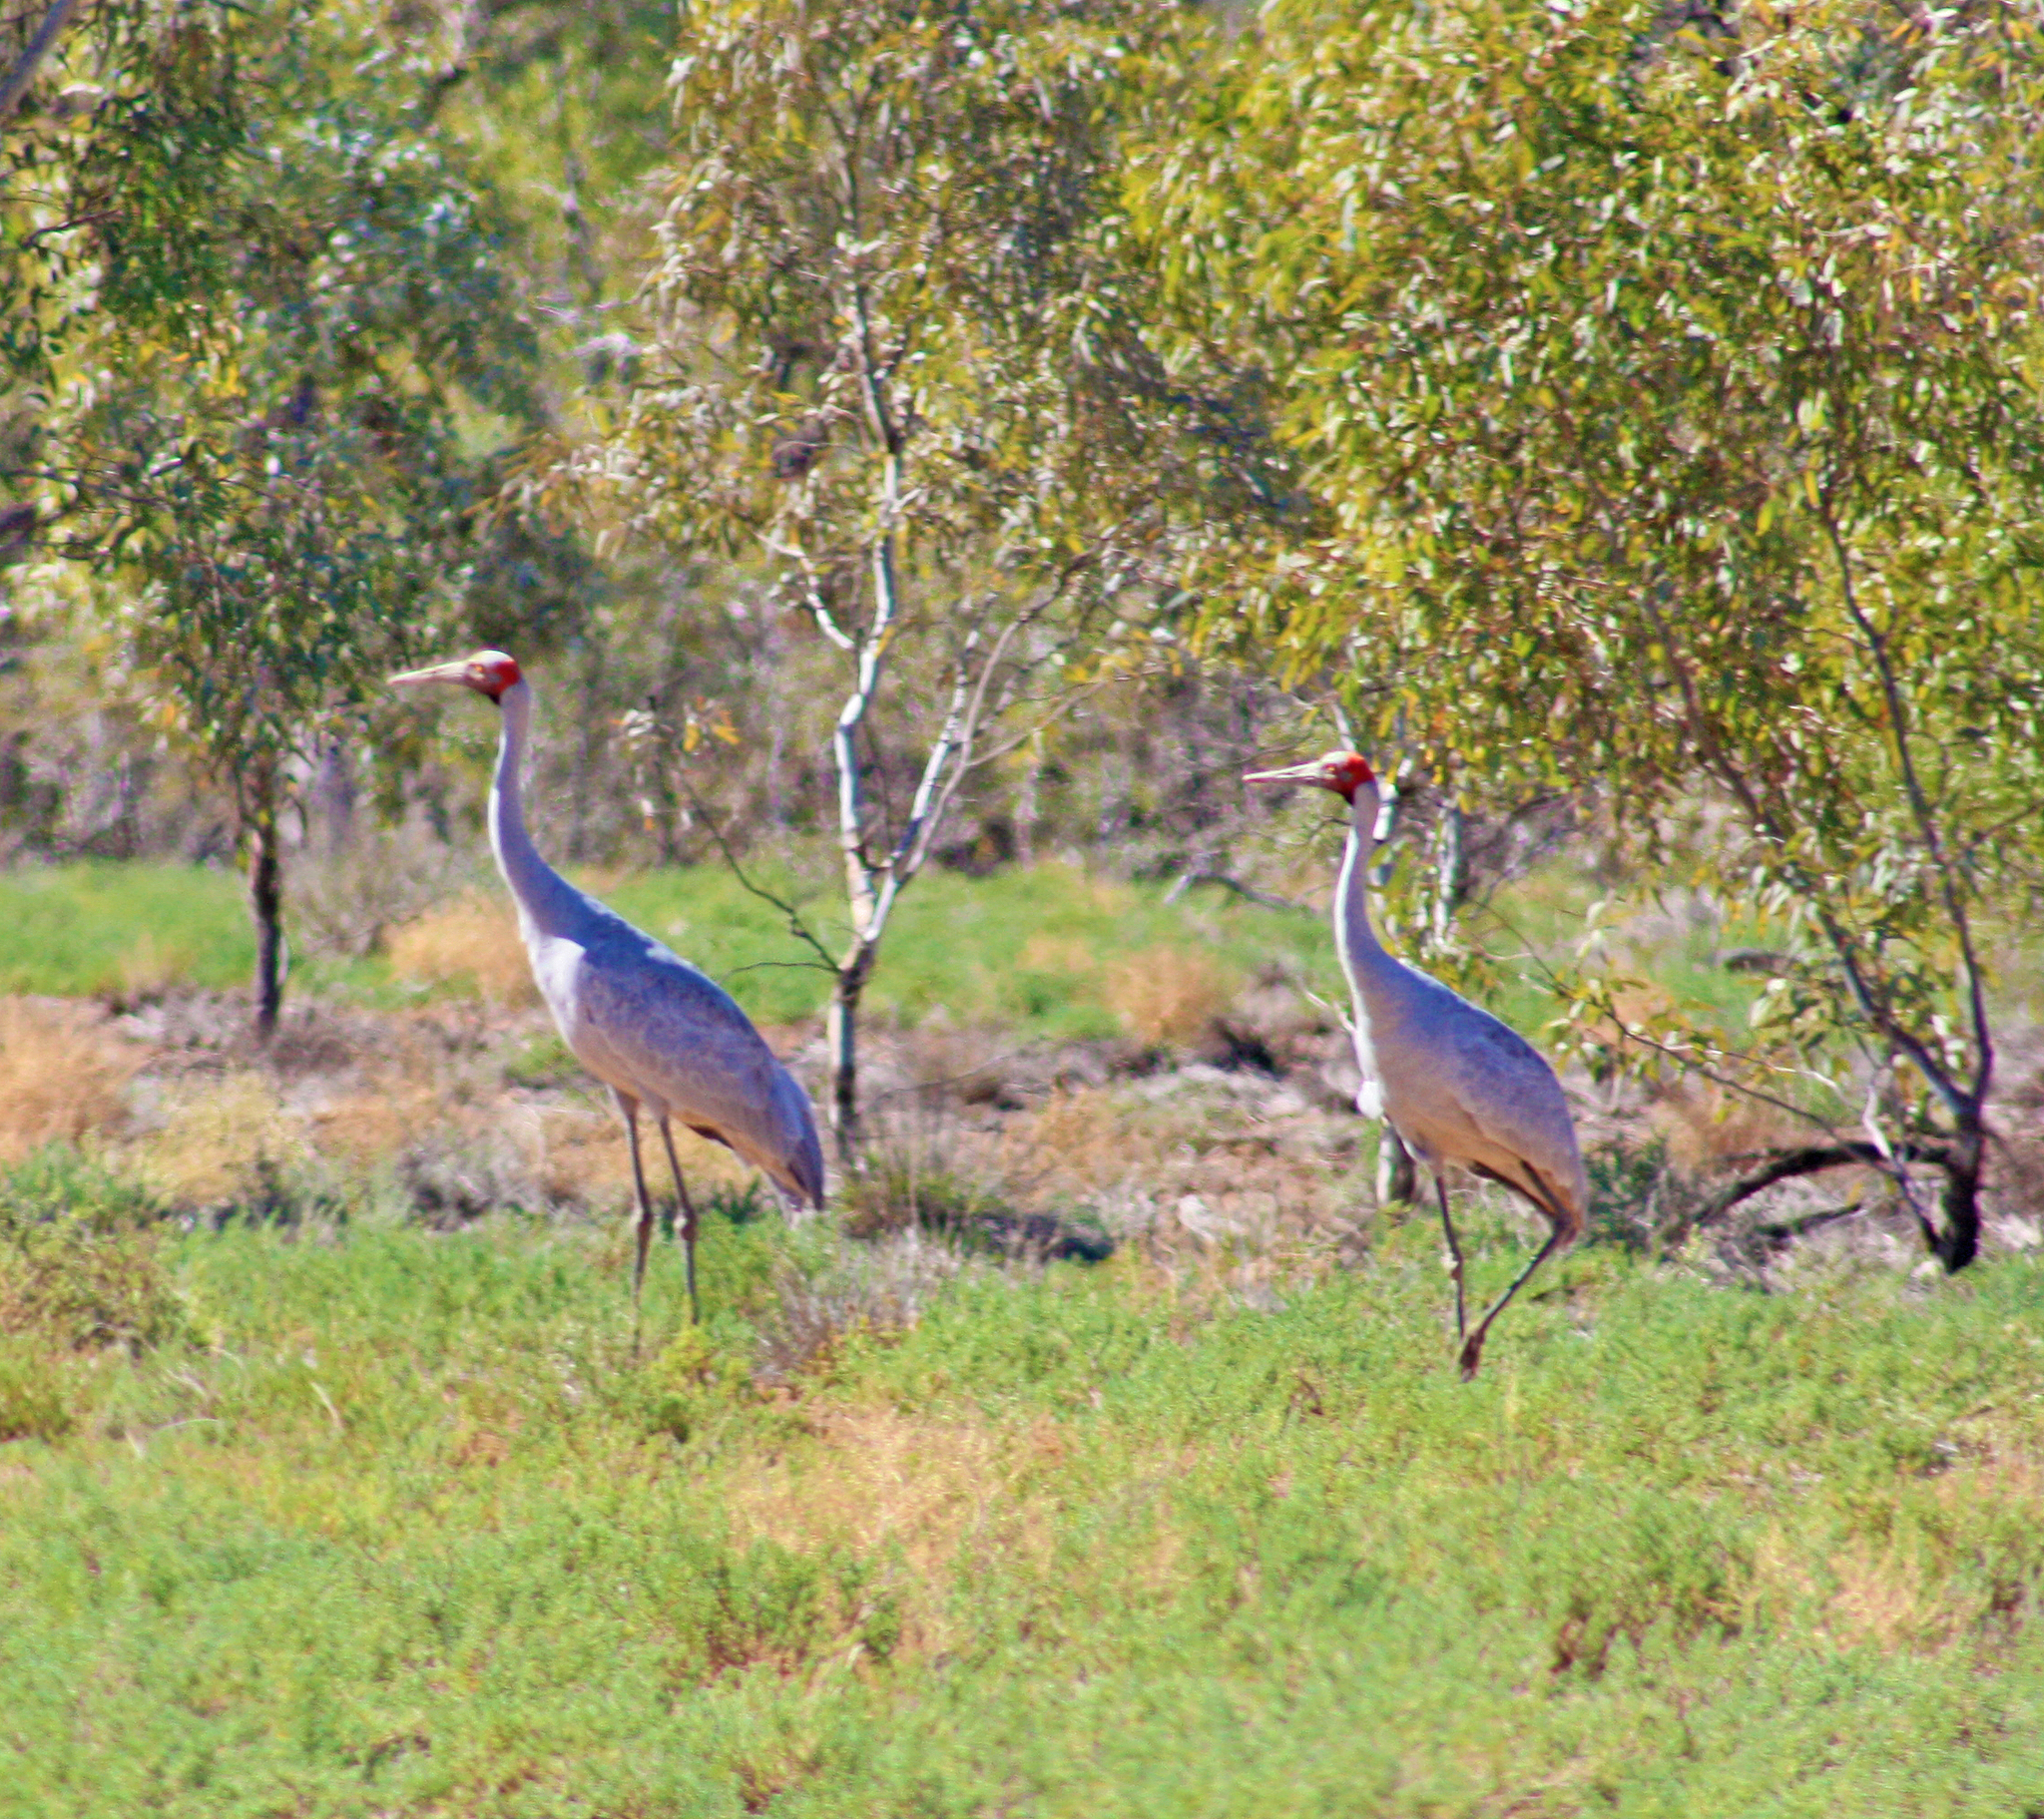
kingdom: Animalia
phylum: Chordata
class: Aves
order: Gruiformes
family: Gruidae
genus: Grus
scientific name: Grus rubicunda
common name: Brolga
